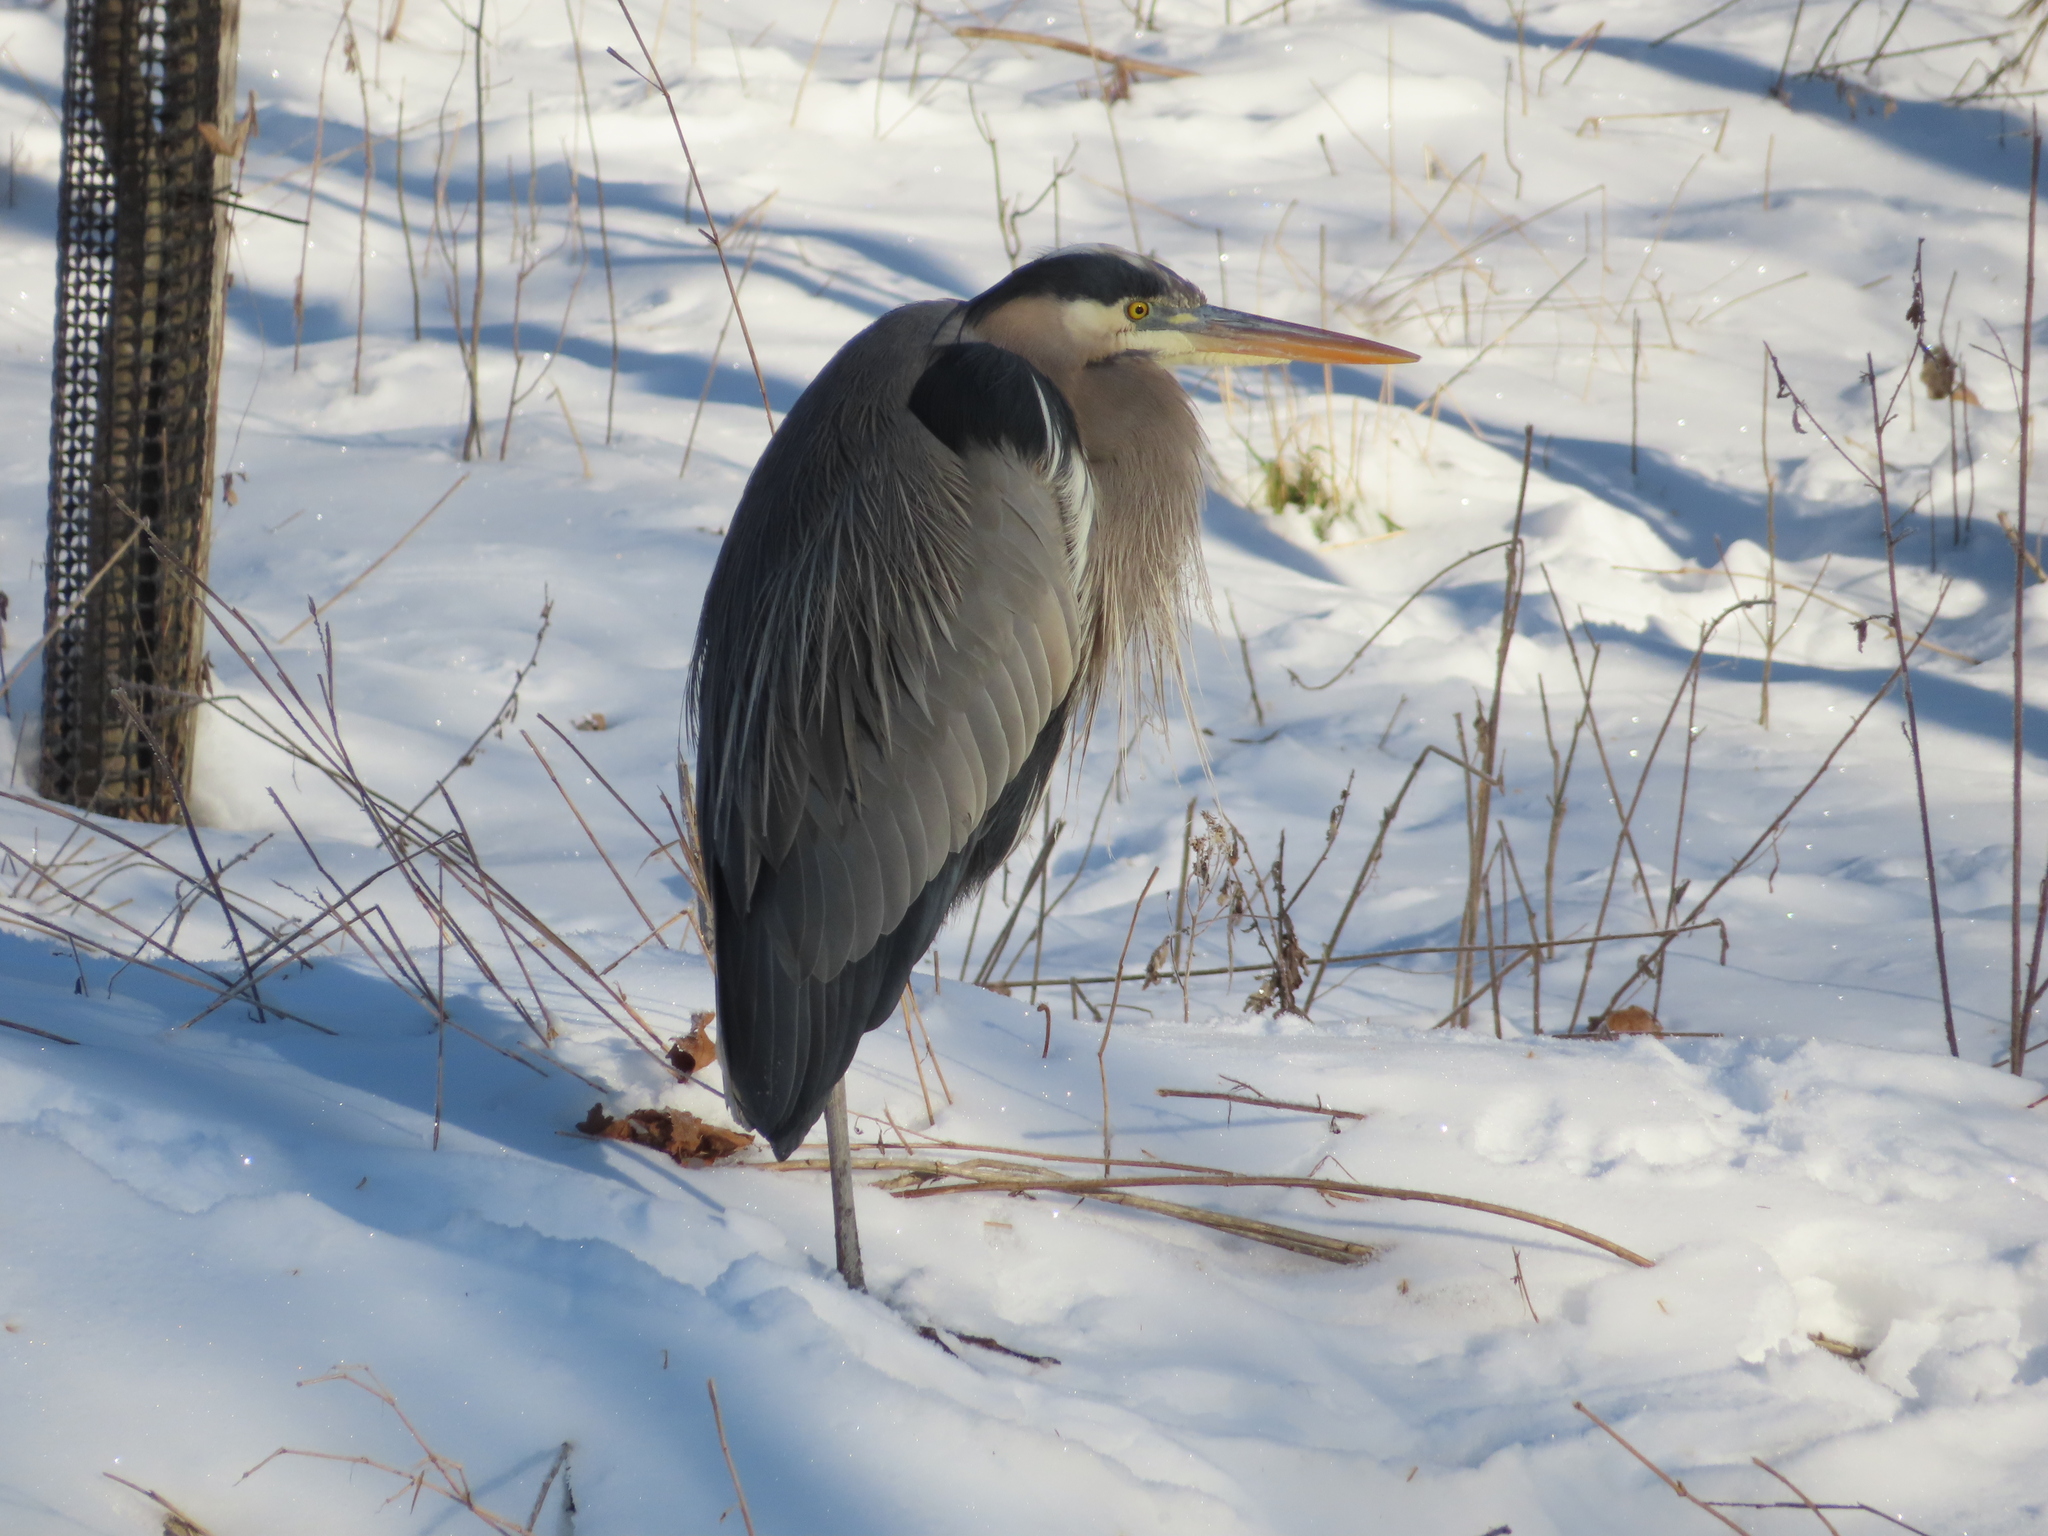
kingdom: Animalia
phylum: Chordata
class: Aves
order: Pelecaniformes
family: Ardeidae
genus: Ardea
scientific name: Ardea herodias
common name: Great blue heron
